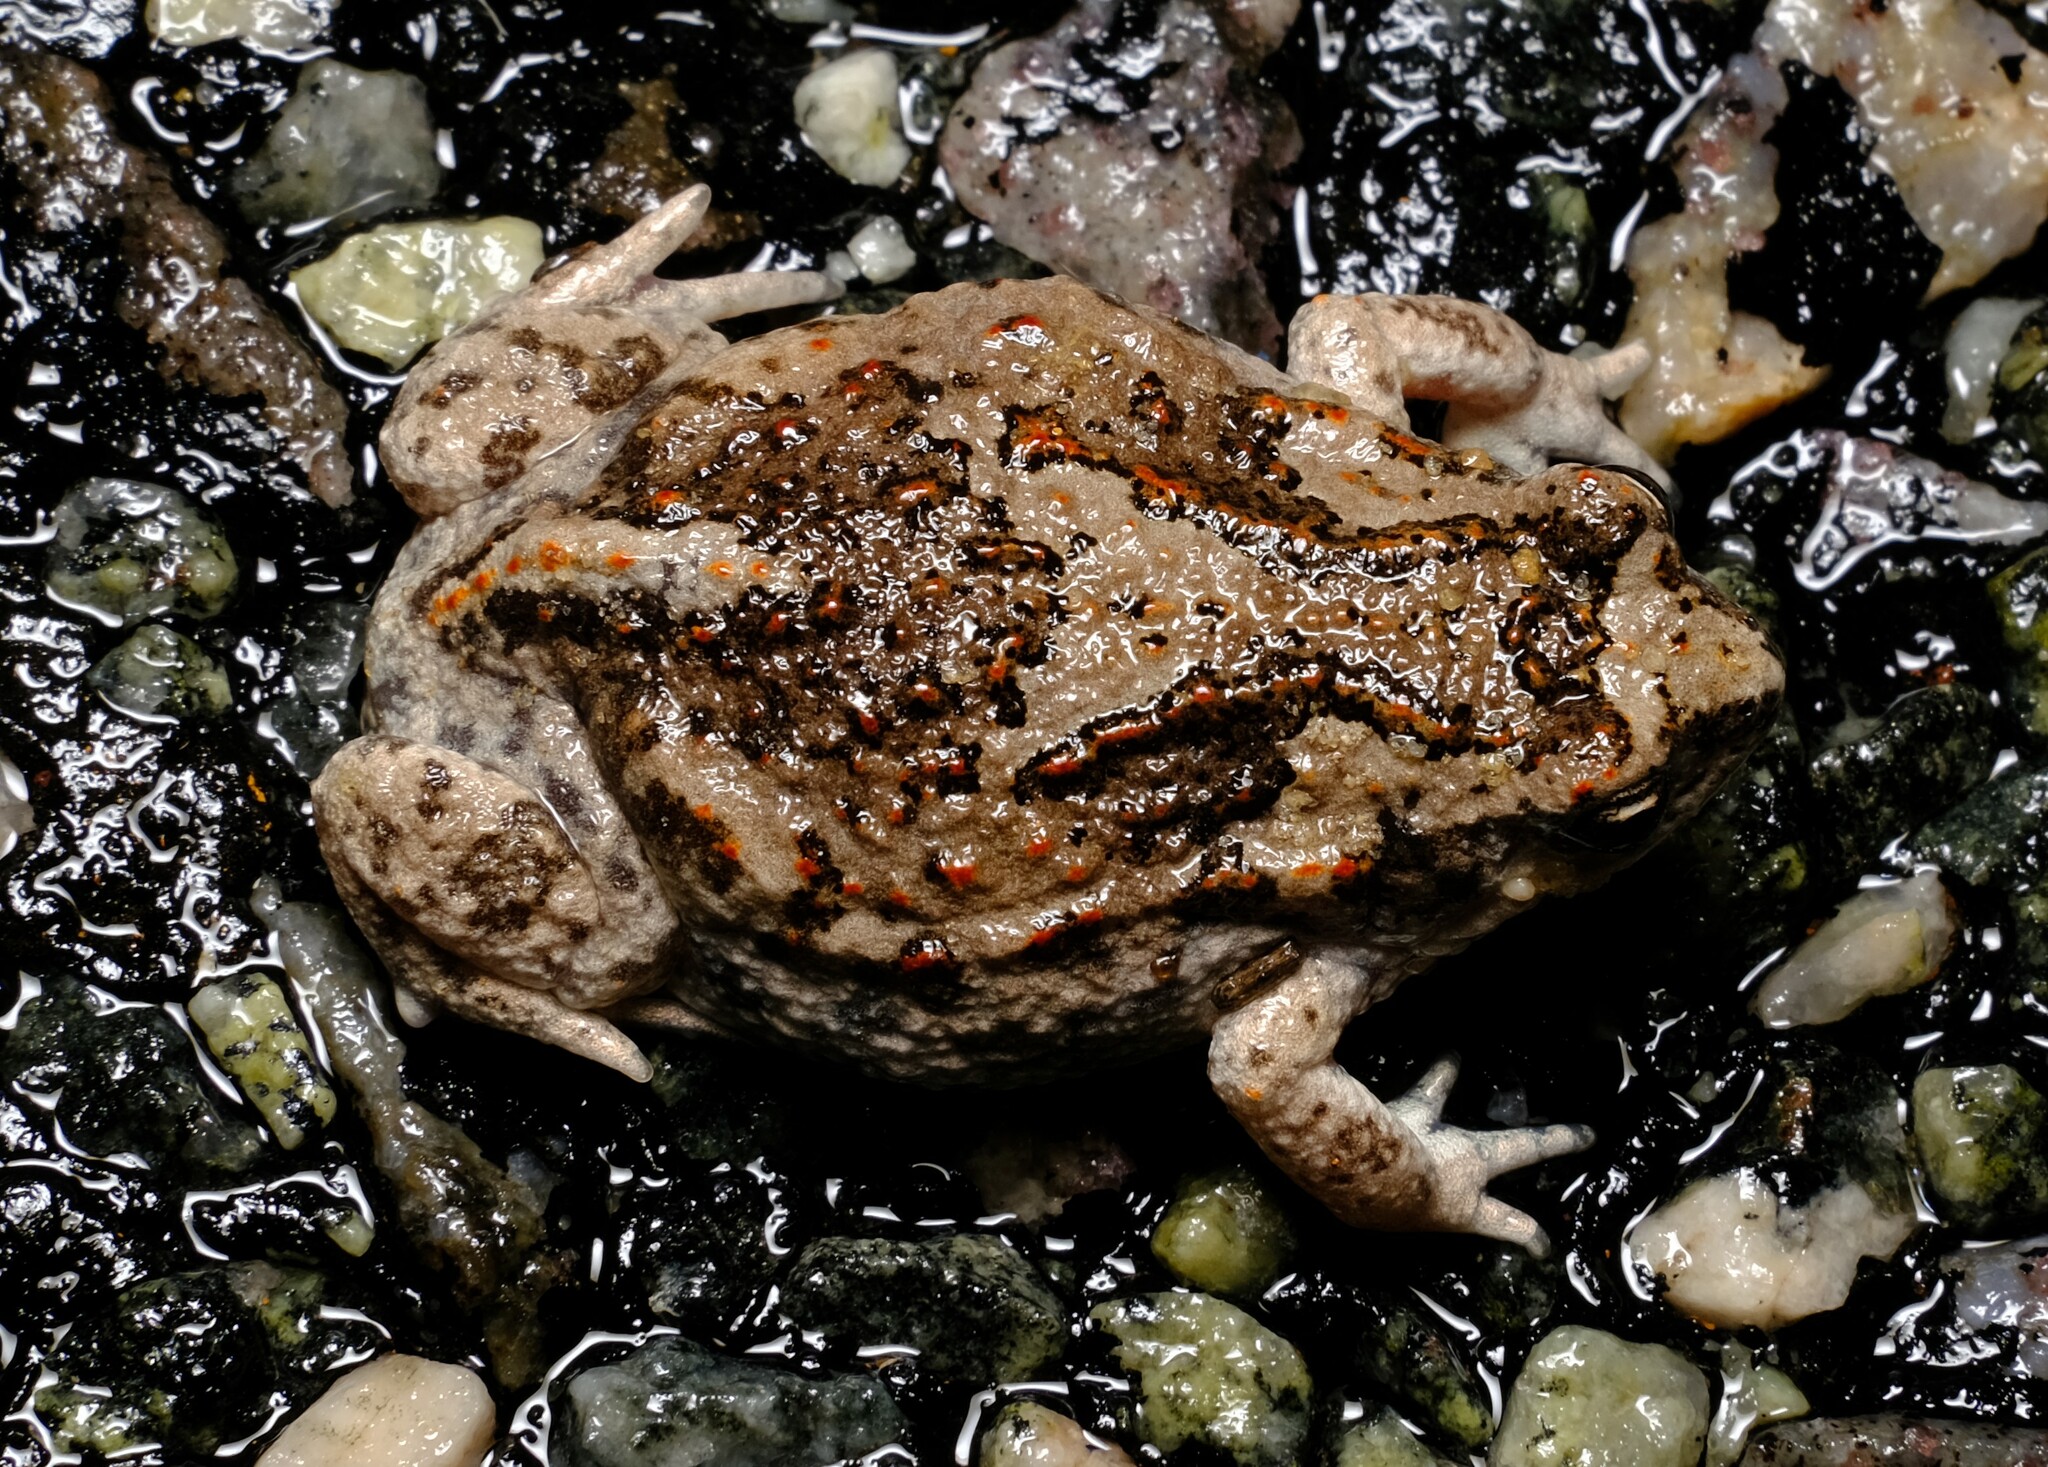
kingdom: Animalia
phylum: Chordata
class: Amphibia
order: Anura
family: Myobatrachidae
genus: Pseudophryne
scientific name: Pseudophryne guentheri
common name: Günther’s toadlet
